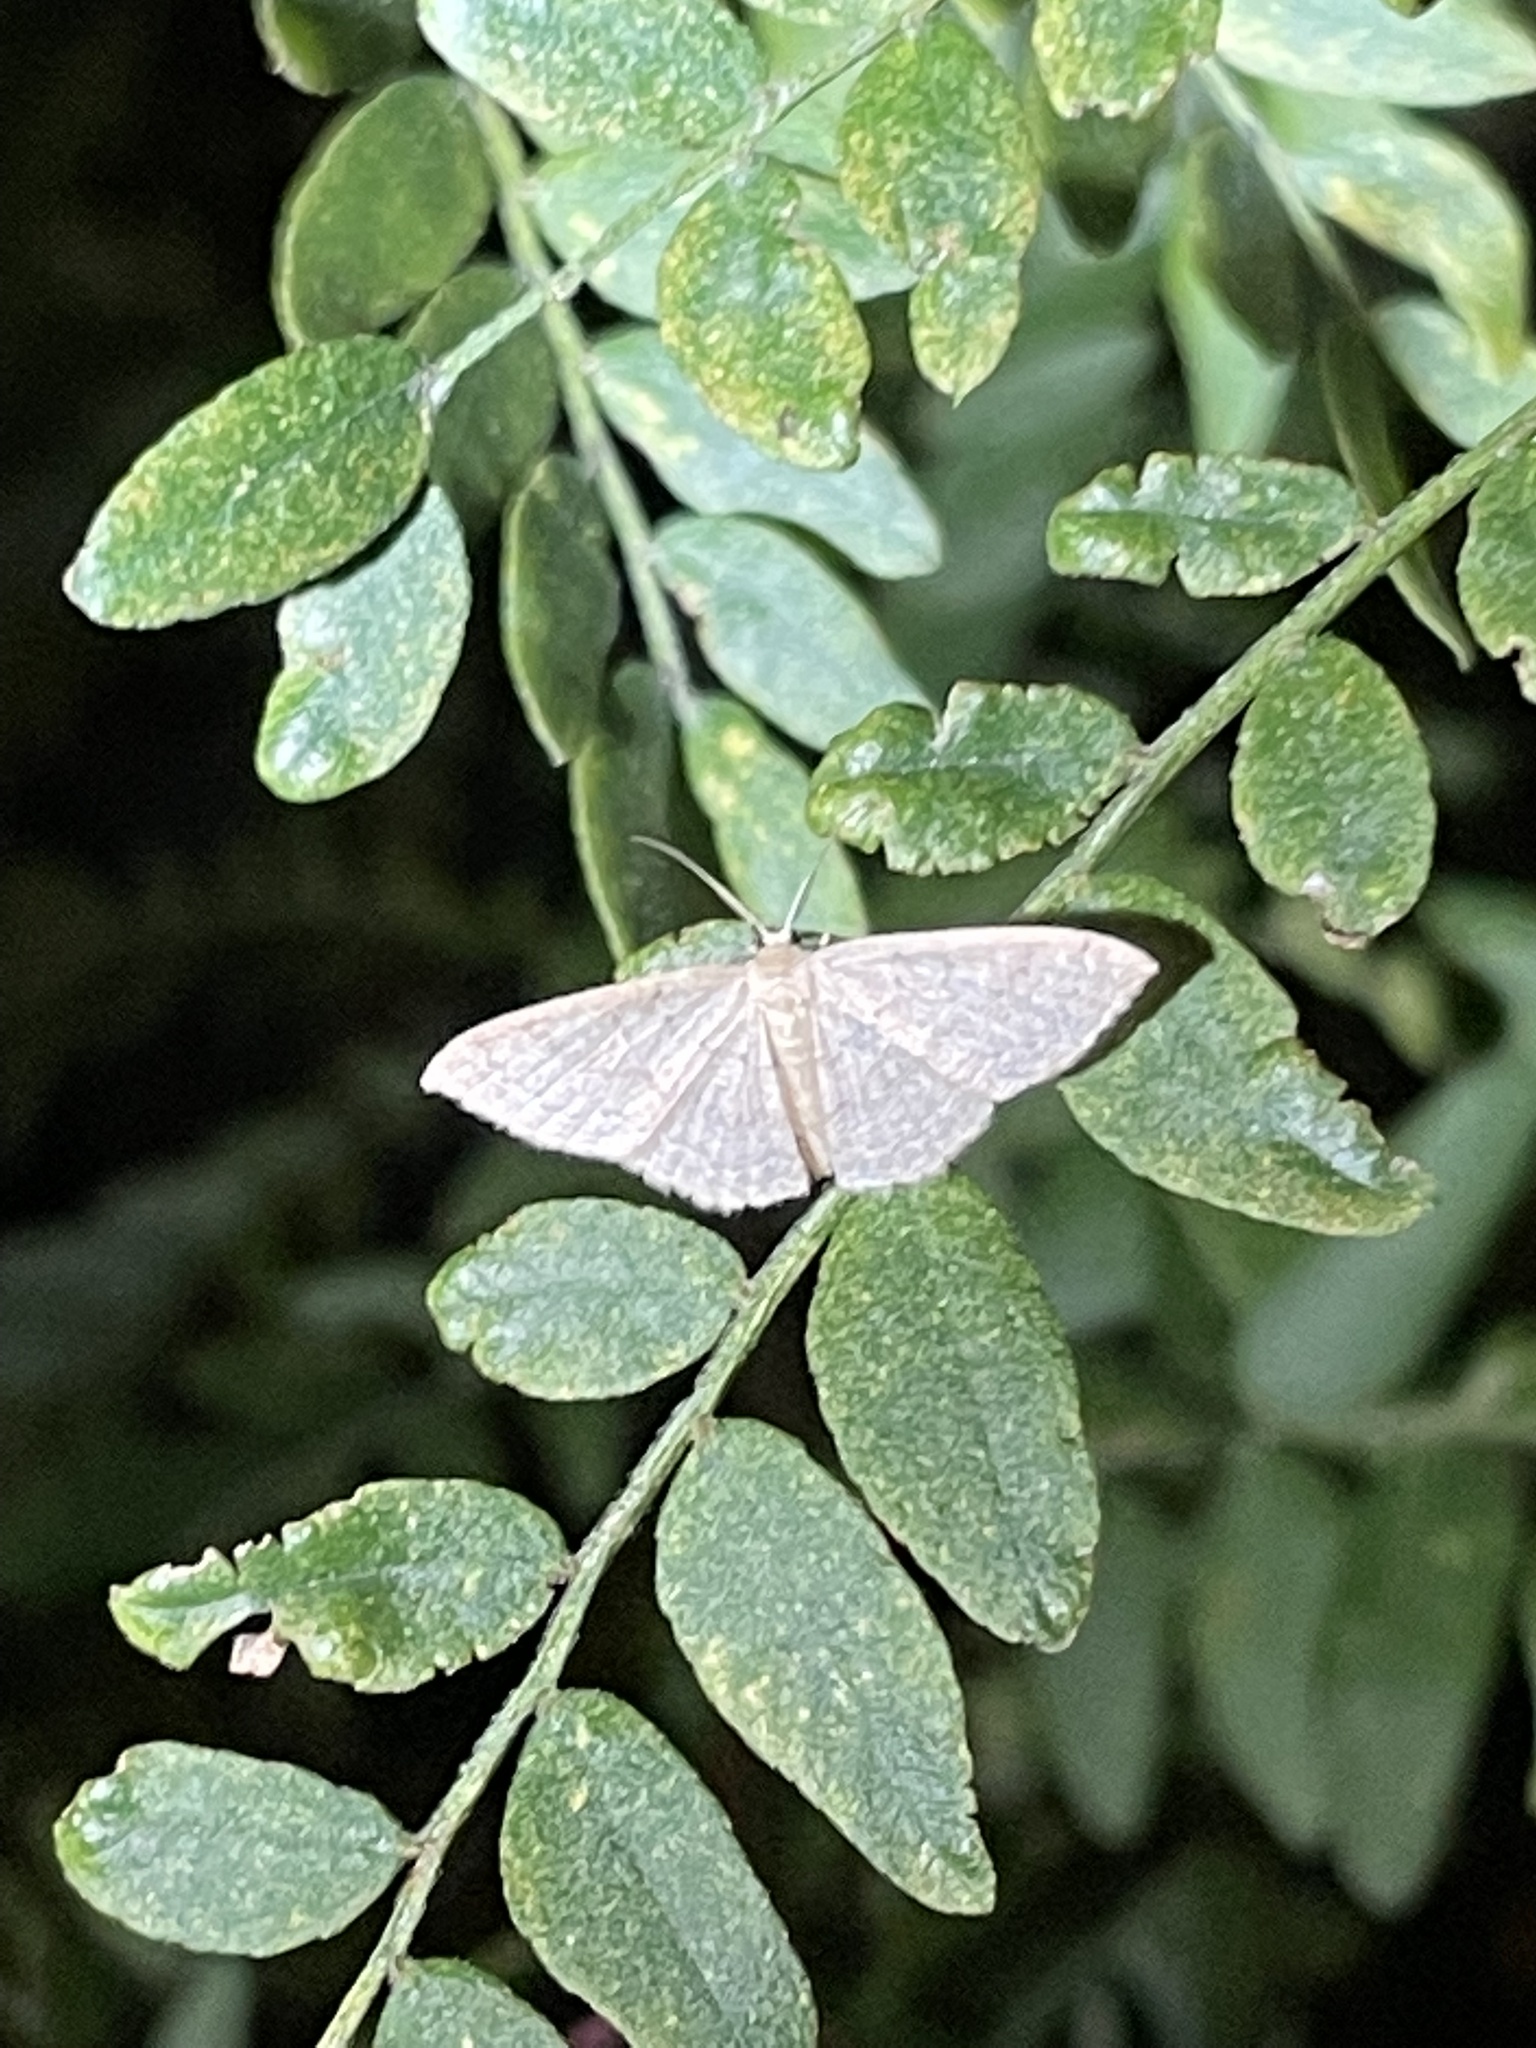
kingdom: Animalia
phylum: Arthropoda
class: Insecta
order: Lepidoptera
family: Geometridae
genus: Pleuroprucha
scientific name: Pleuroprucha insulsaria
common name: Common tan wave
